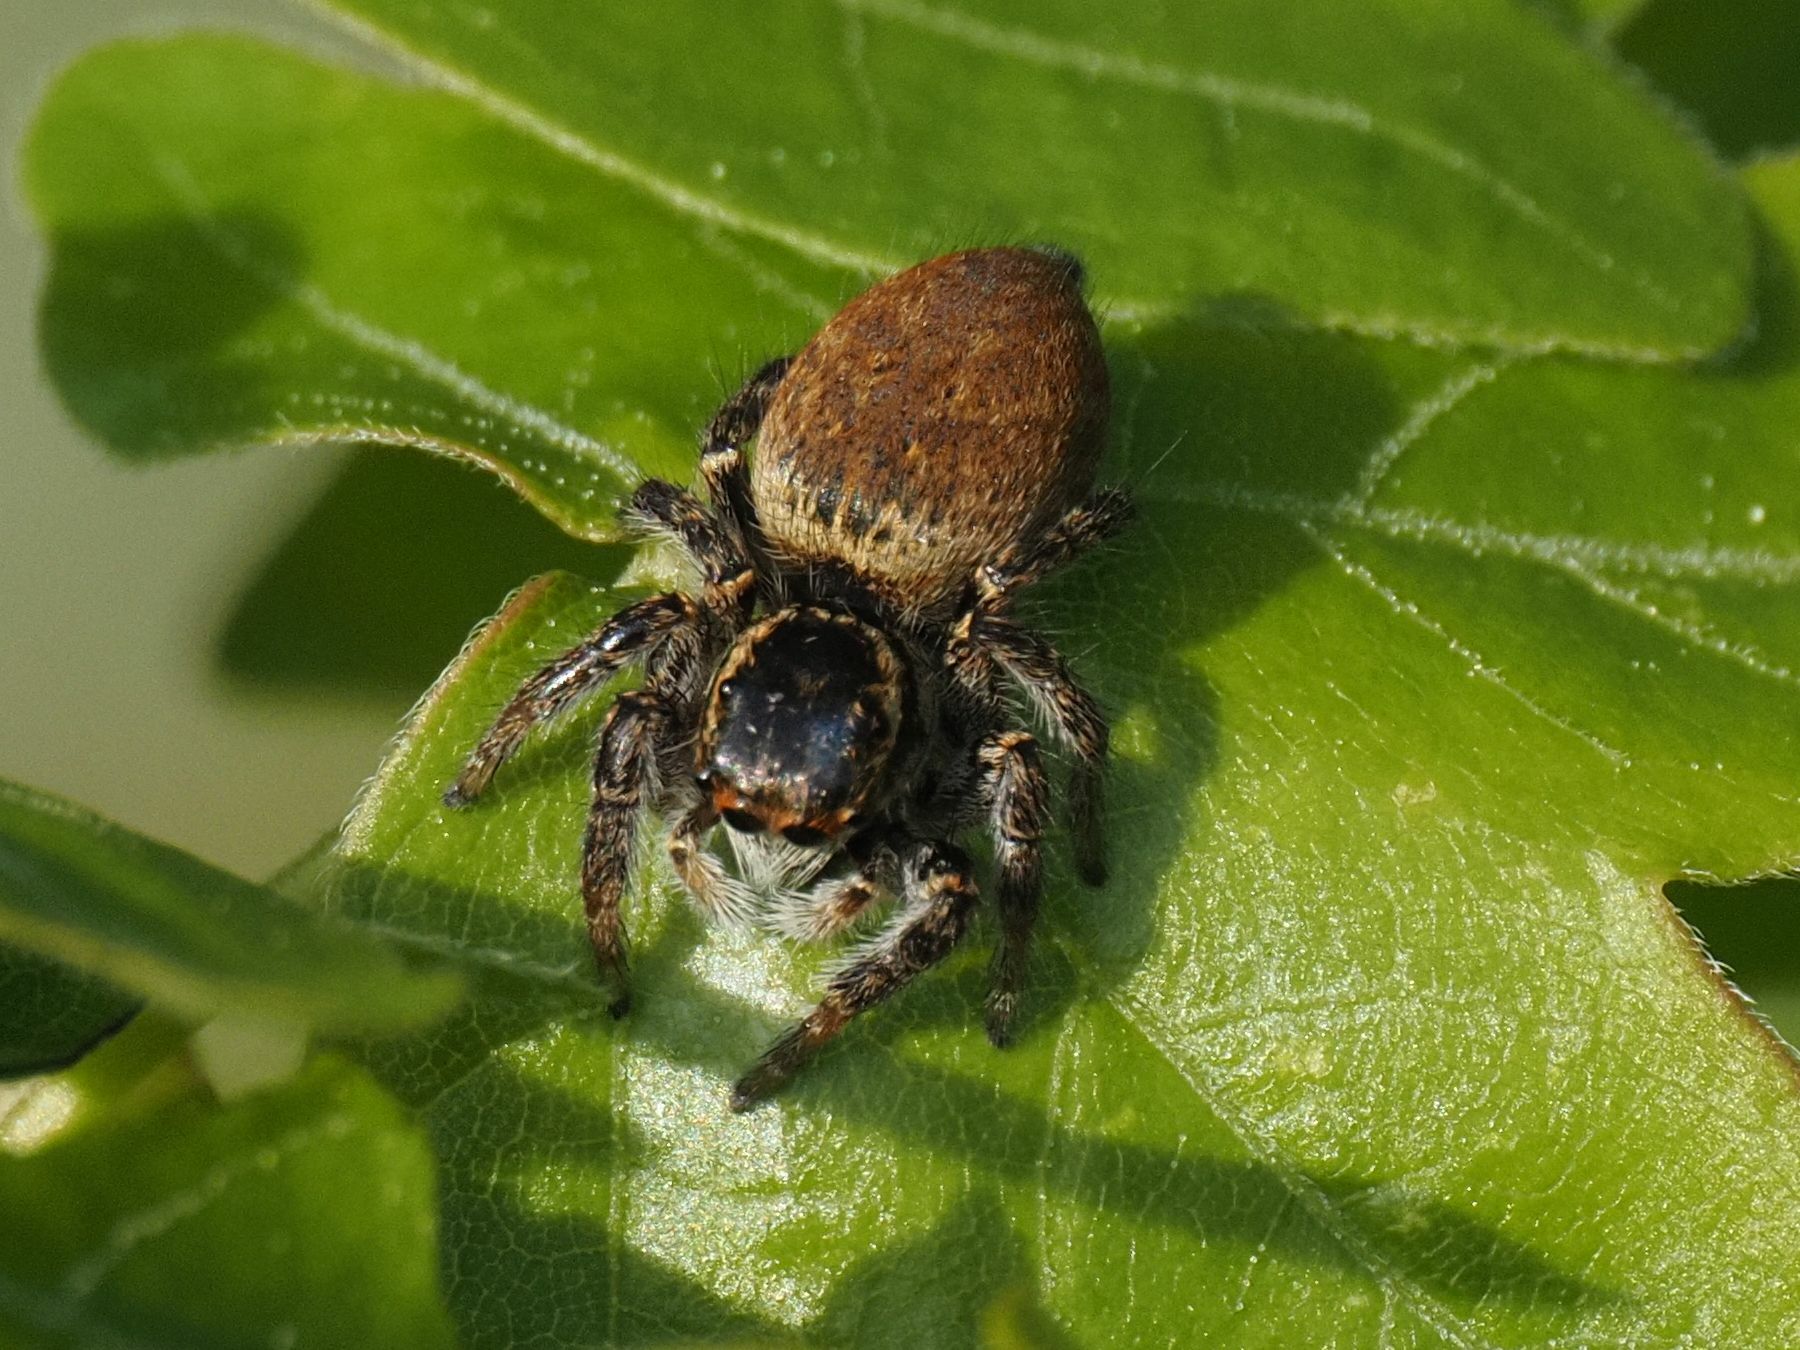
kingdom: Animalia
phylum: Arthropoda
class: Arachnida
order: Araneae
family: Salticidae
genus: Carrhotus
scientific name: Carrhotus xanthogramma
